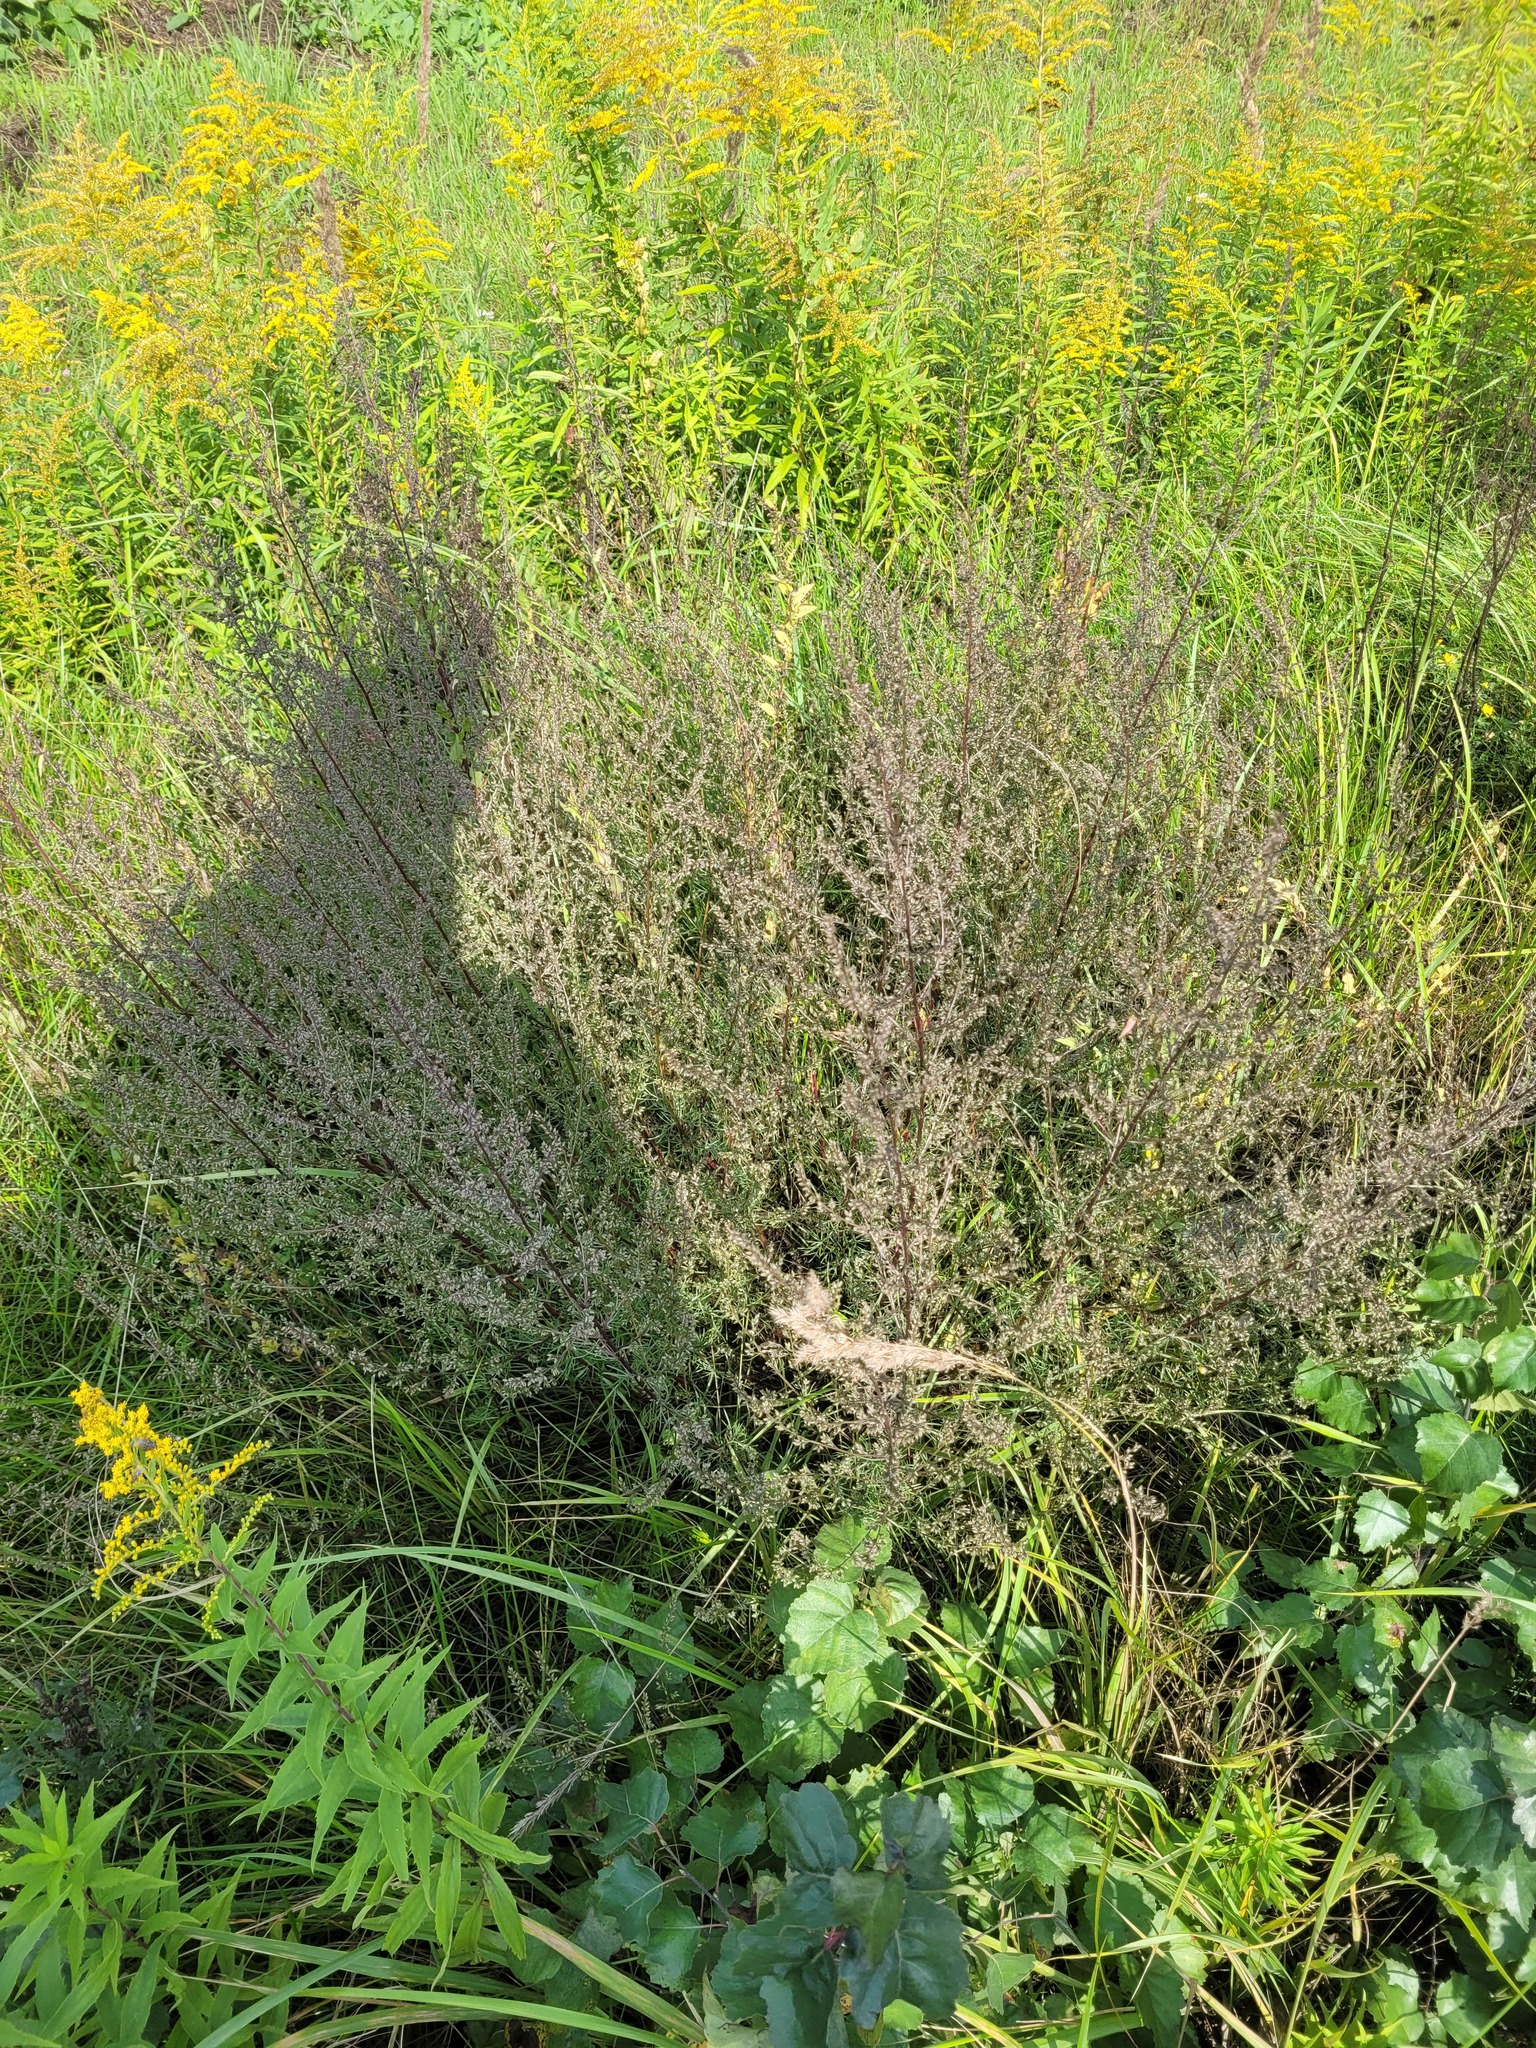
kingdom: Plantae
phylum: Tracheophyta
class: Magnoliopsida
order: Asterales
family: Asteraceae
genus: Artemisia
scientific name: Artemisia campestris
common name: Field wormwood
